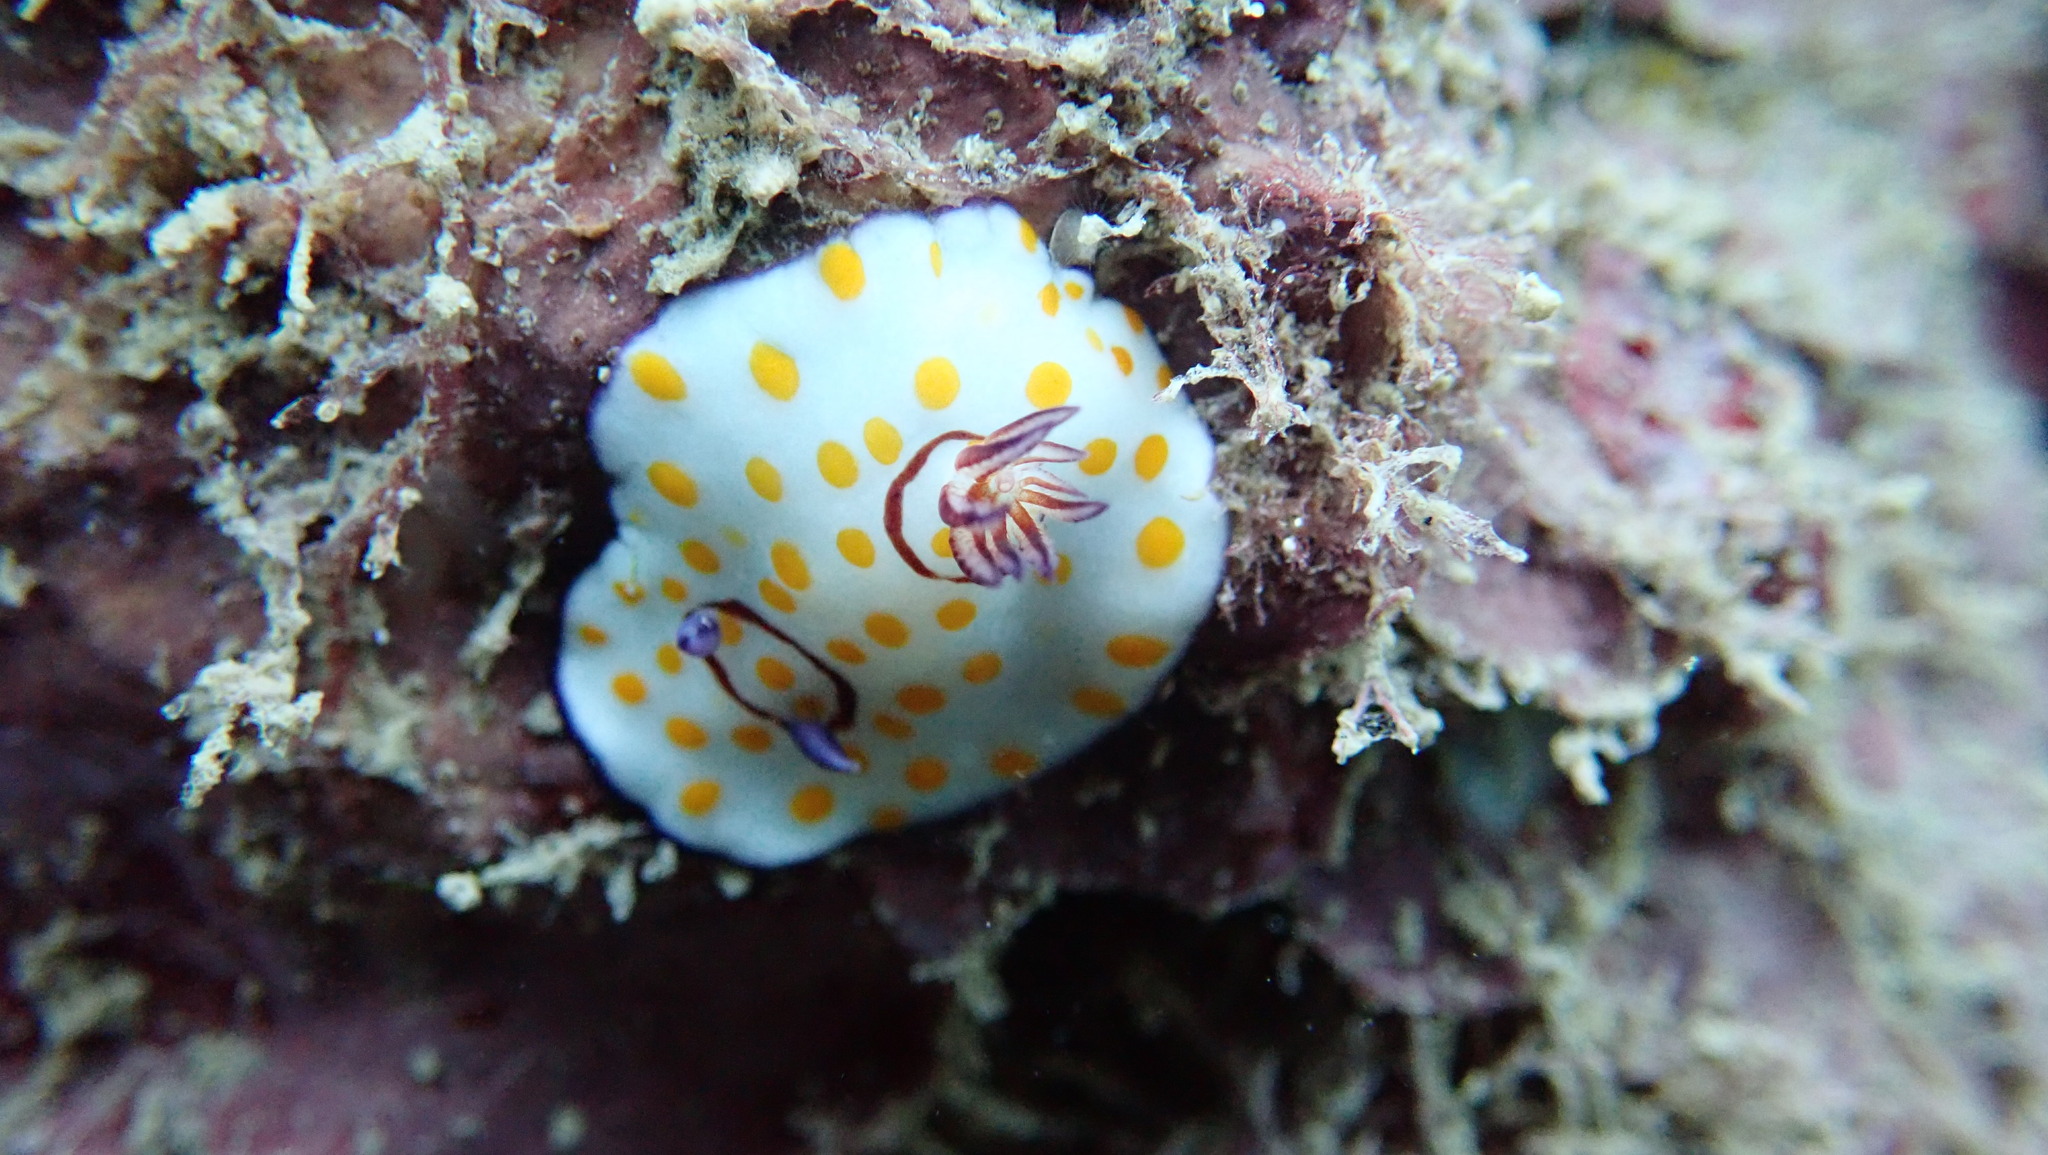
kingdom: Animalia
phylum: Mollusca
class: Gastropoda
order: Nudibranchia
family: Chromodorididae
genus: Goniobranchus
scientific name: Goniobranchus annulatus
